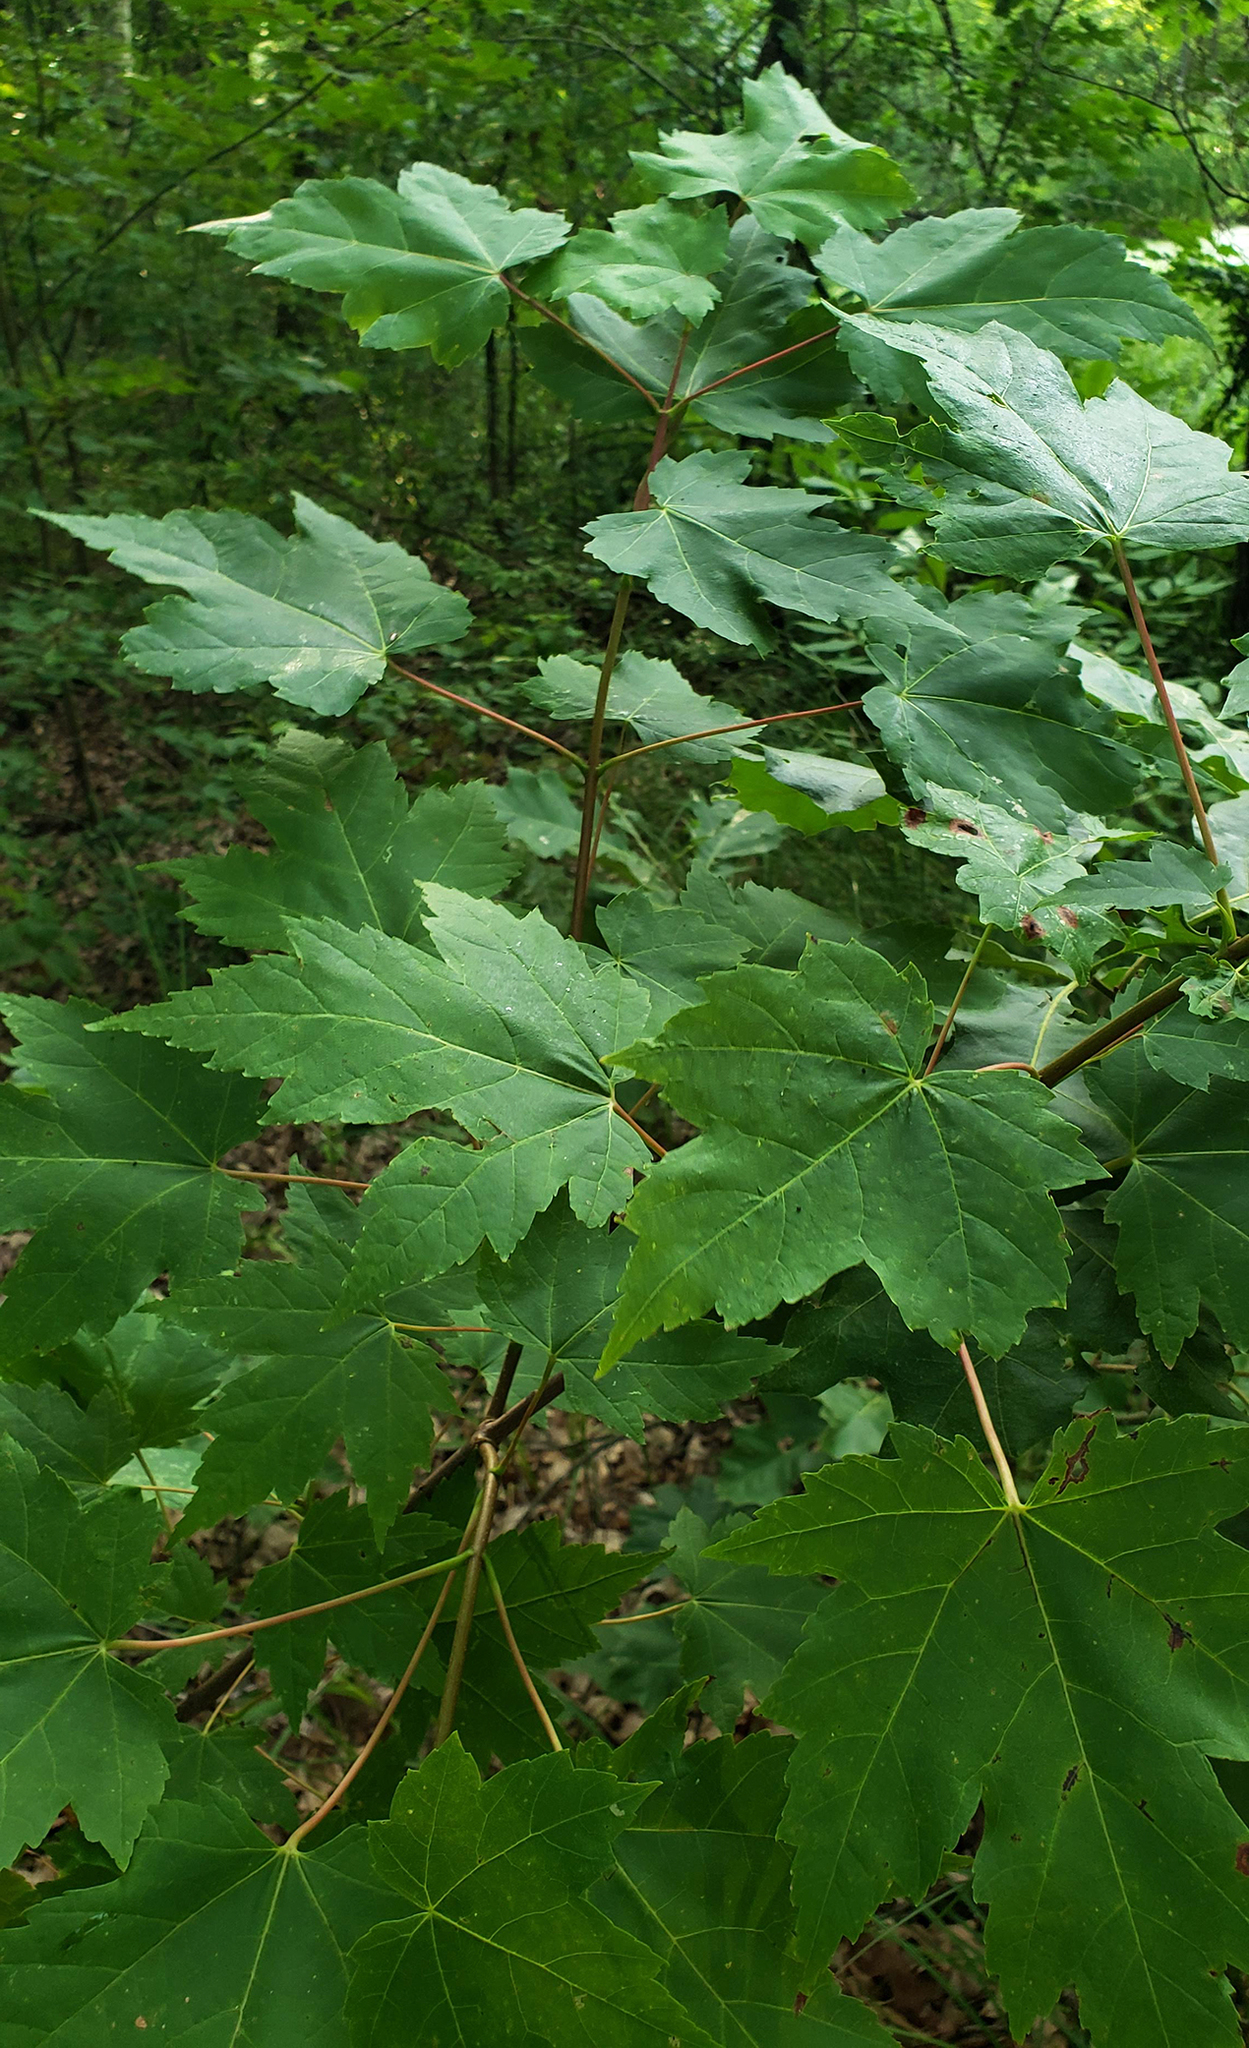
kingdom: Plantae
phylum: Tracheophyta
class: Magnoliopsida
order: Sapindales
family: Sapindaceae
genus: Acer
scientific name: Acer rubrum
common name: Red maple
